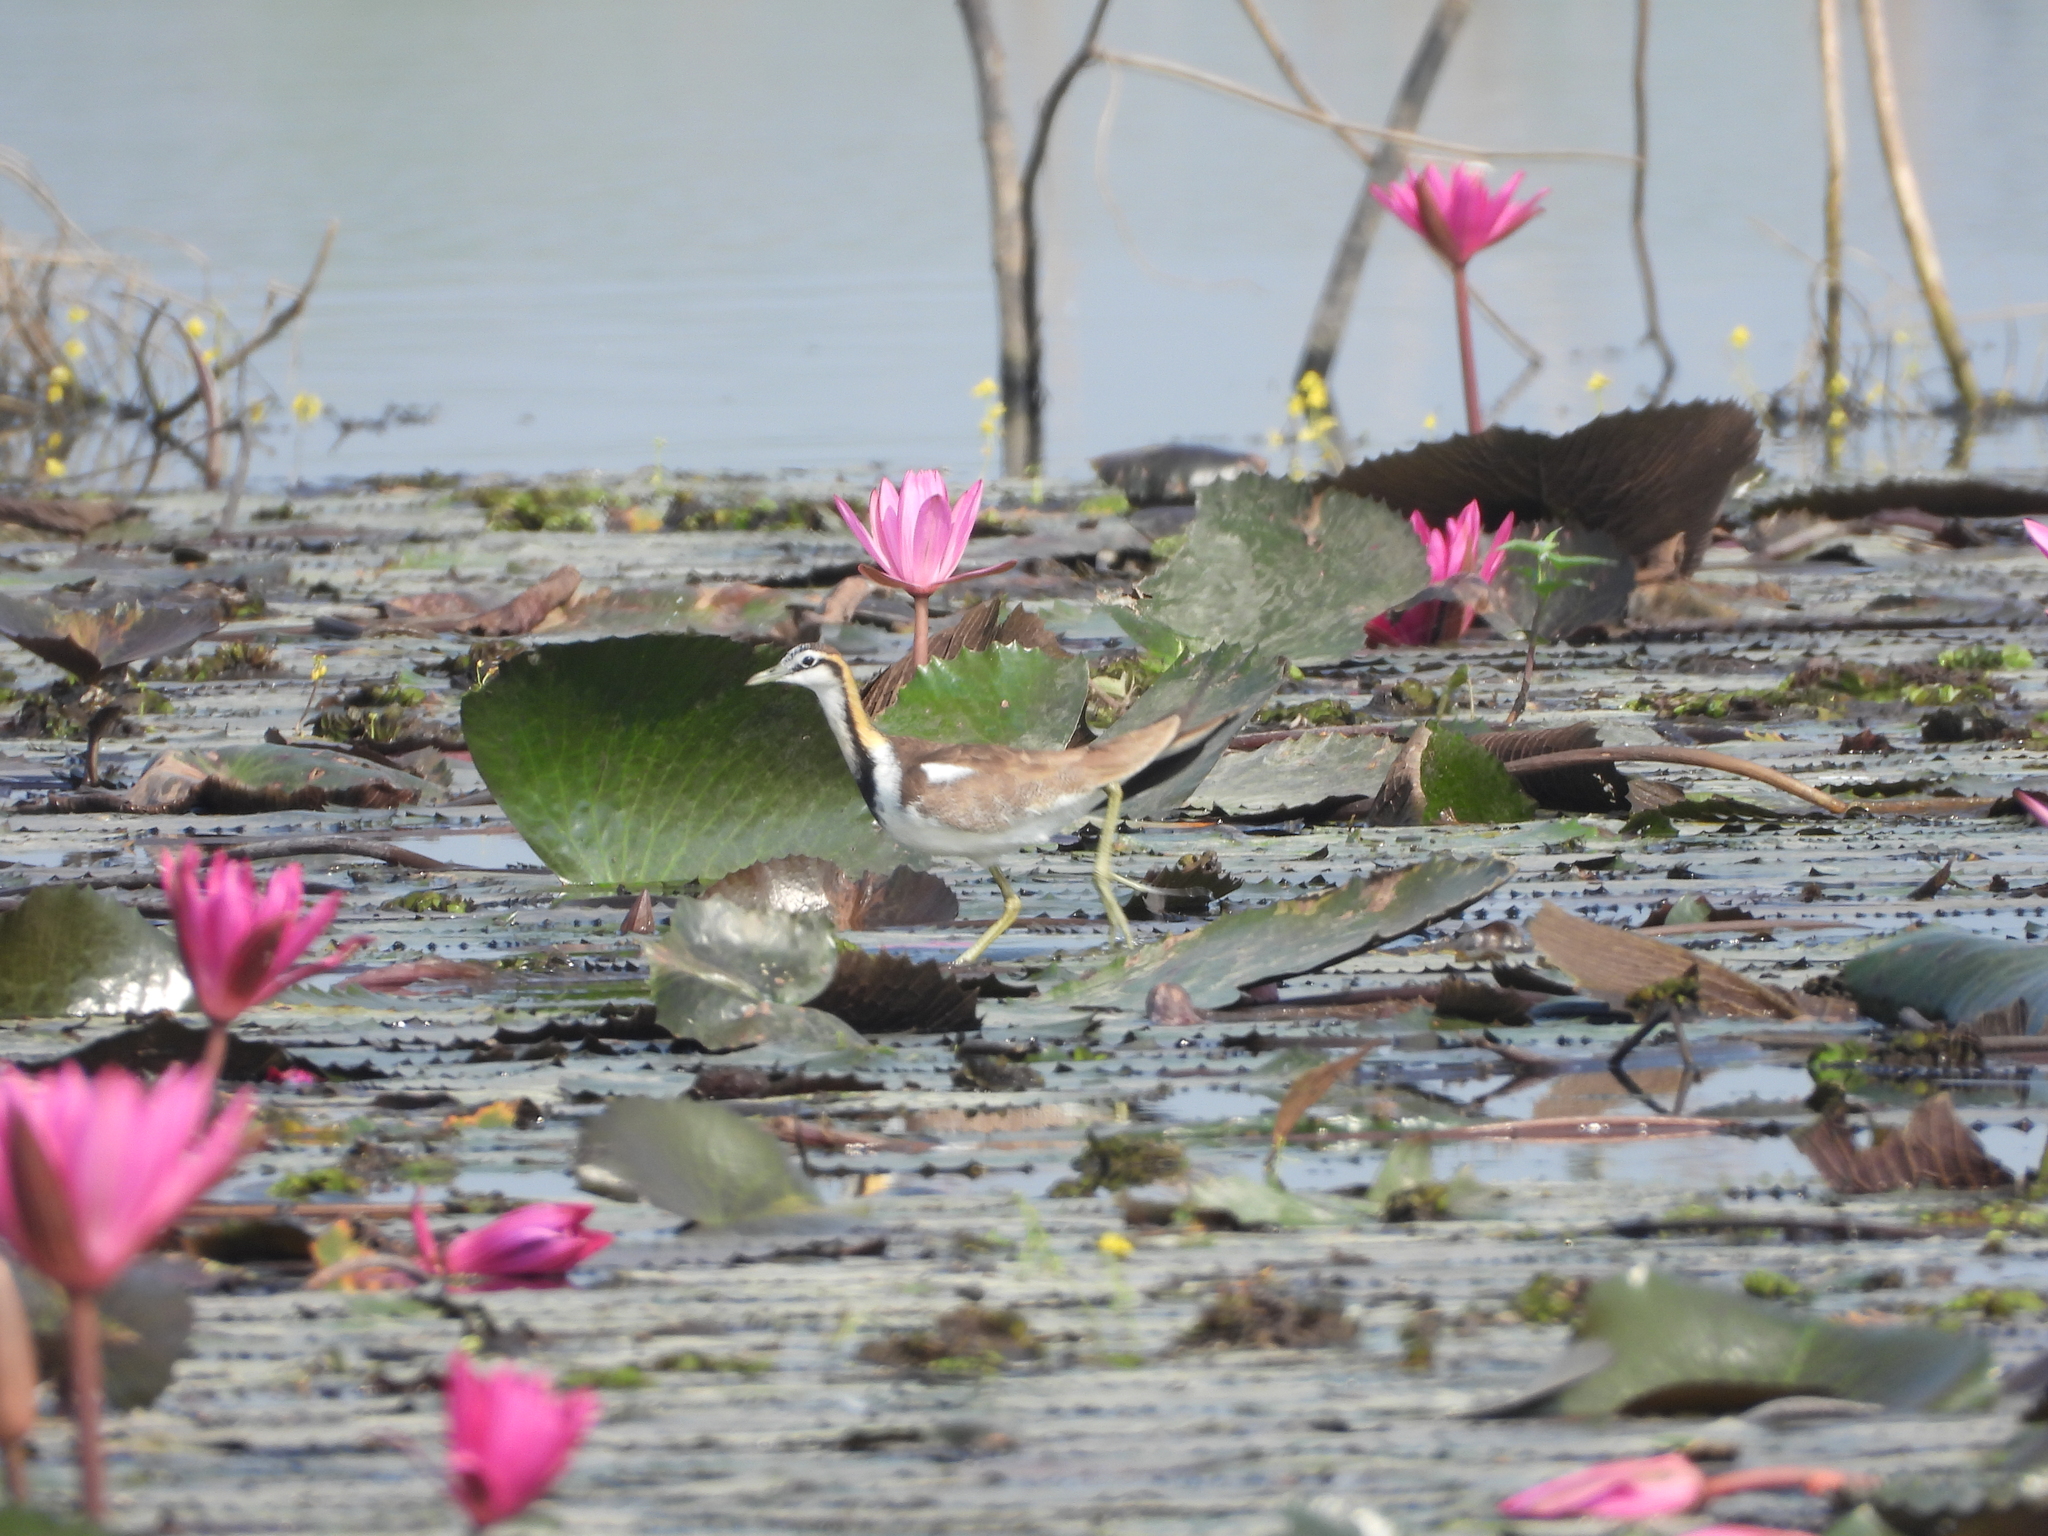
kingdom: Animalia
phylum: Chordata
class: Aves
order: Charadriiformes
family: Jacanidae
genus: Hydrophasianus
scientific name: Hydrophasianus chirurgus
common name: Pheasant-tailed jacana
